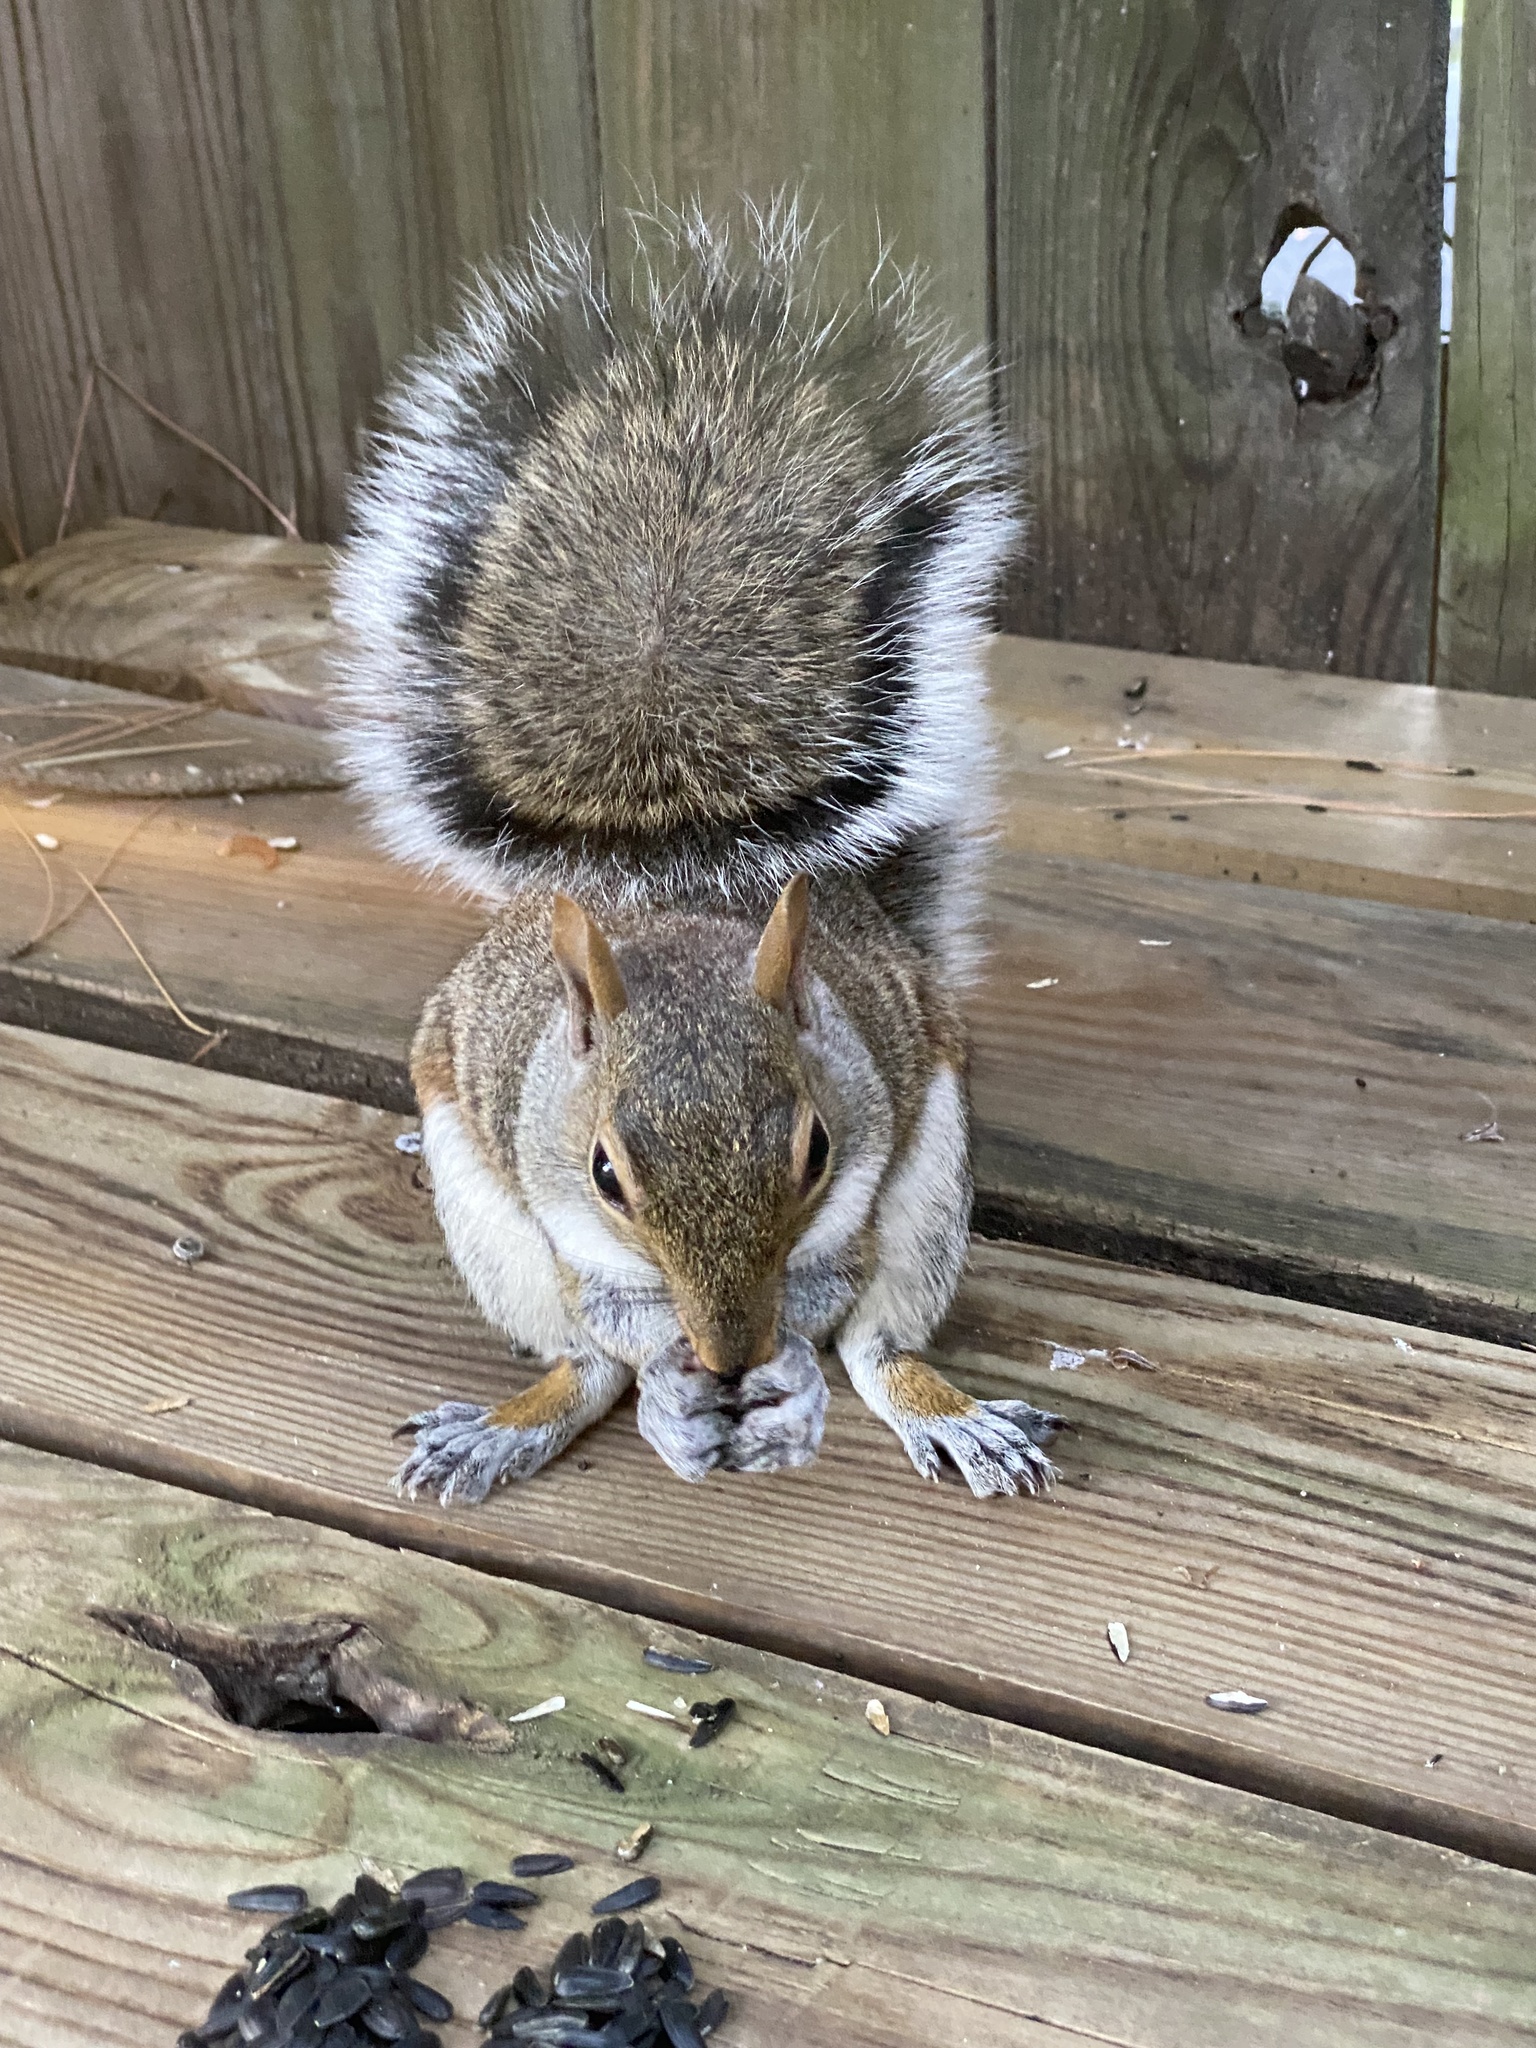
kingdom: Animalia
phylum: Chordata
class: Mammalia
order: Rodentia
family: Sciuridae
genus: Sciurus
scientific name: Sciurus carolinensis
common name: Eastern gray squirrel
